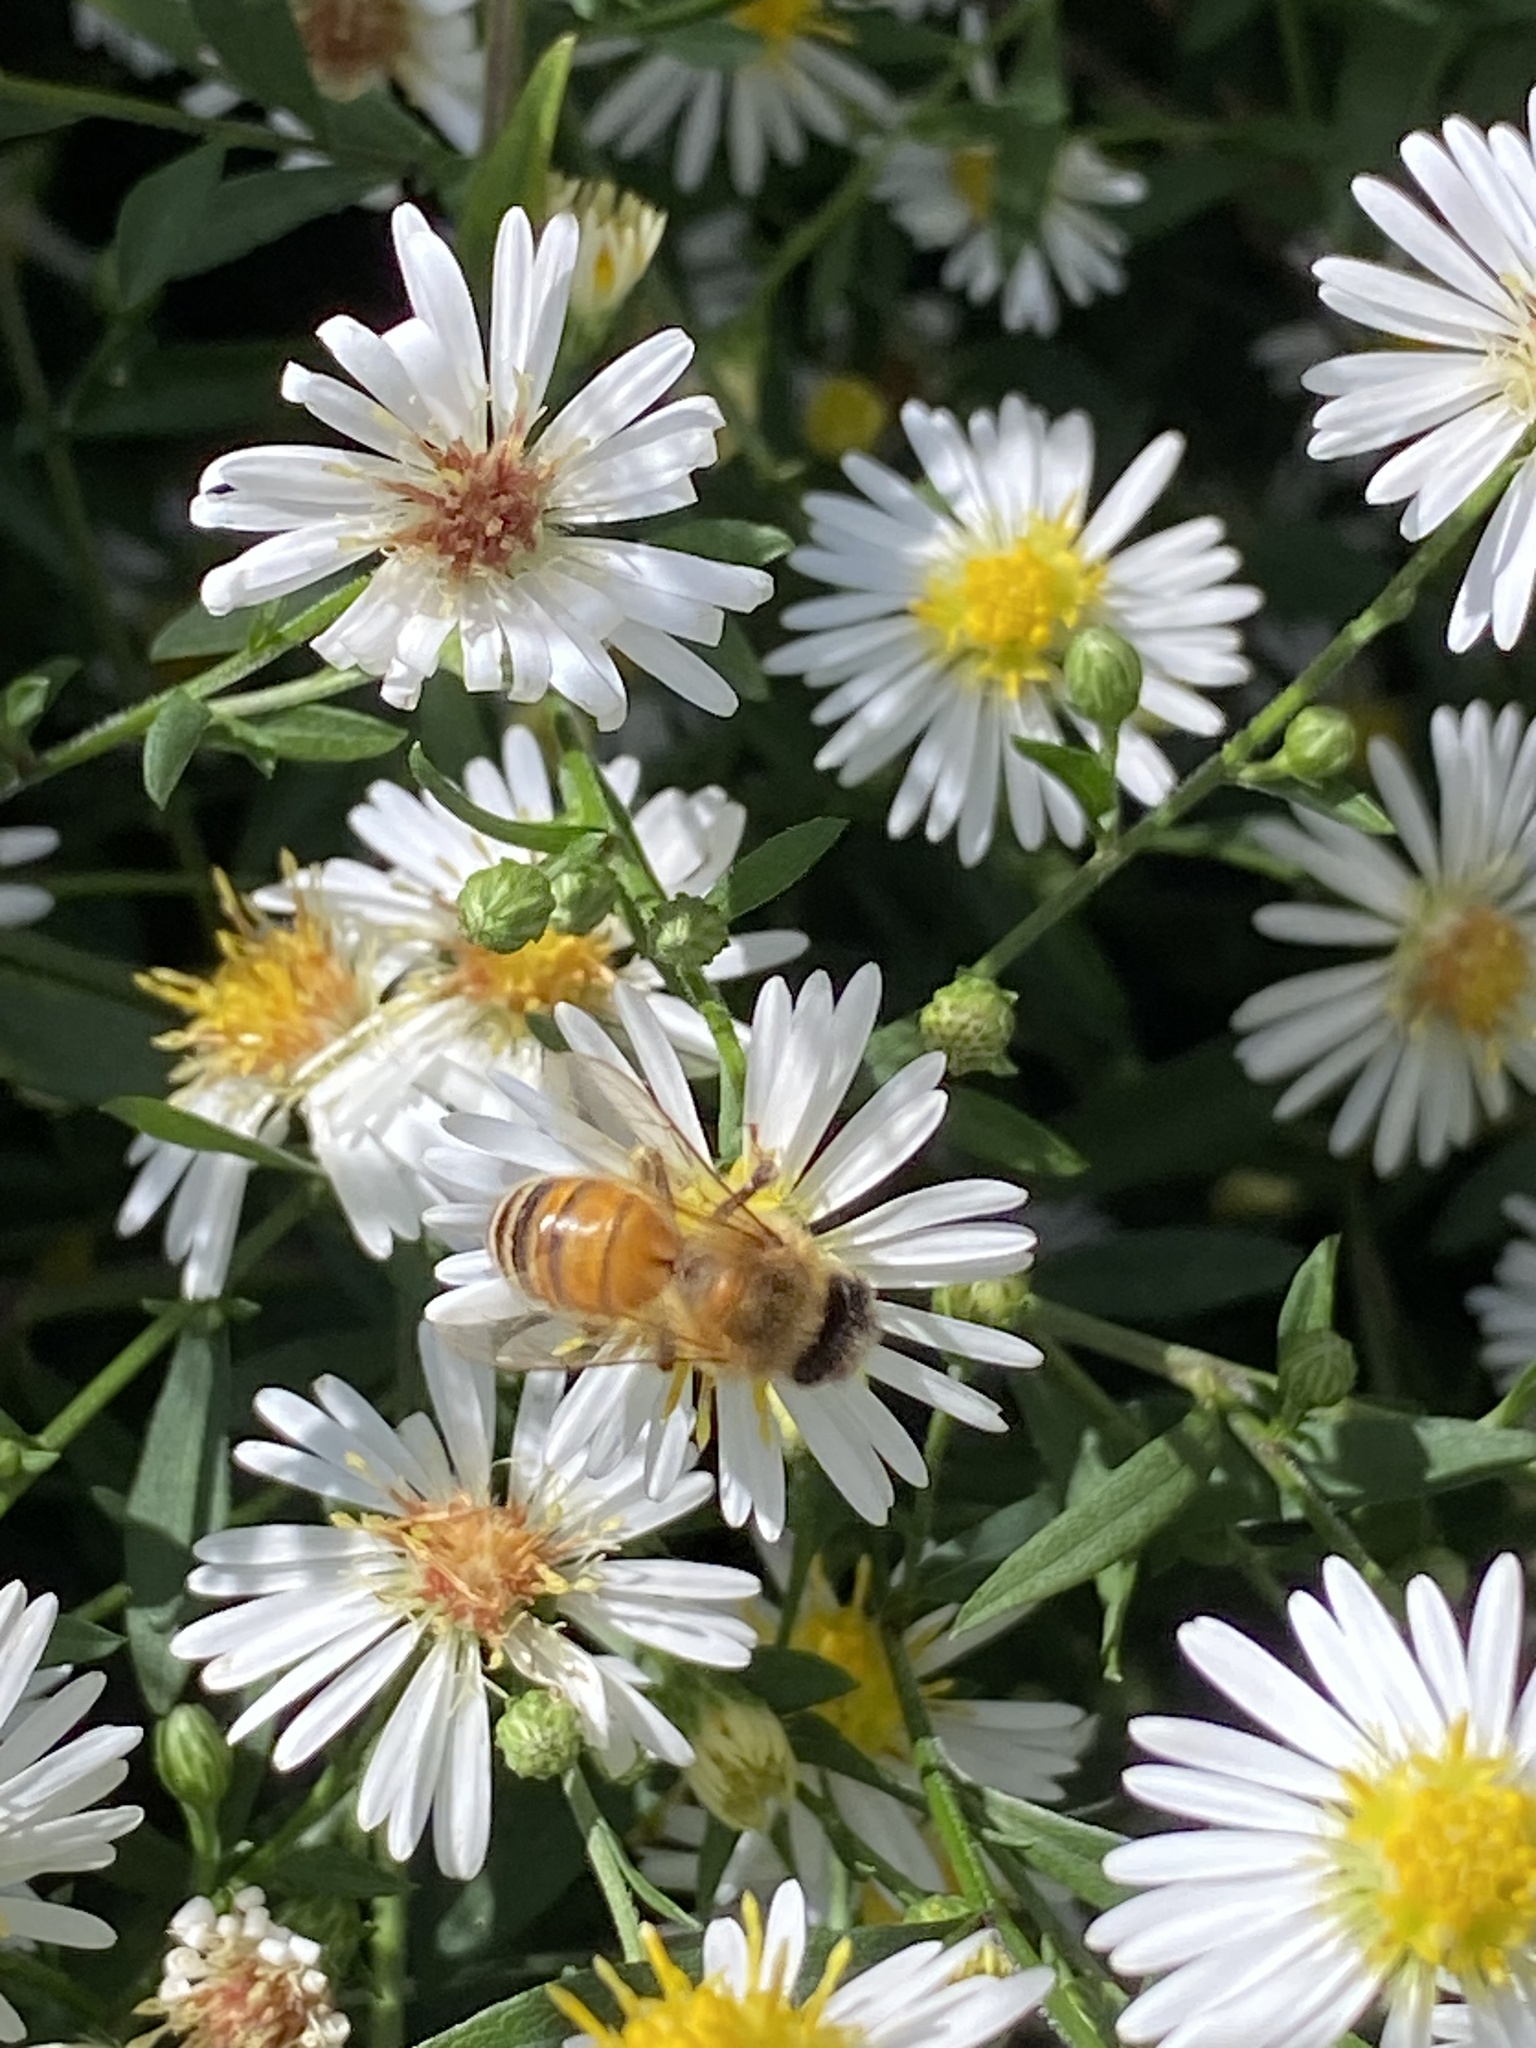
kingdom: Animalia
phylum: Arthropoda
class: Insecta
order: Hymenoptera
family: Apidae
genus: Apis
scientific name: Apis mellifera
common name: Honey bee
